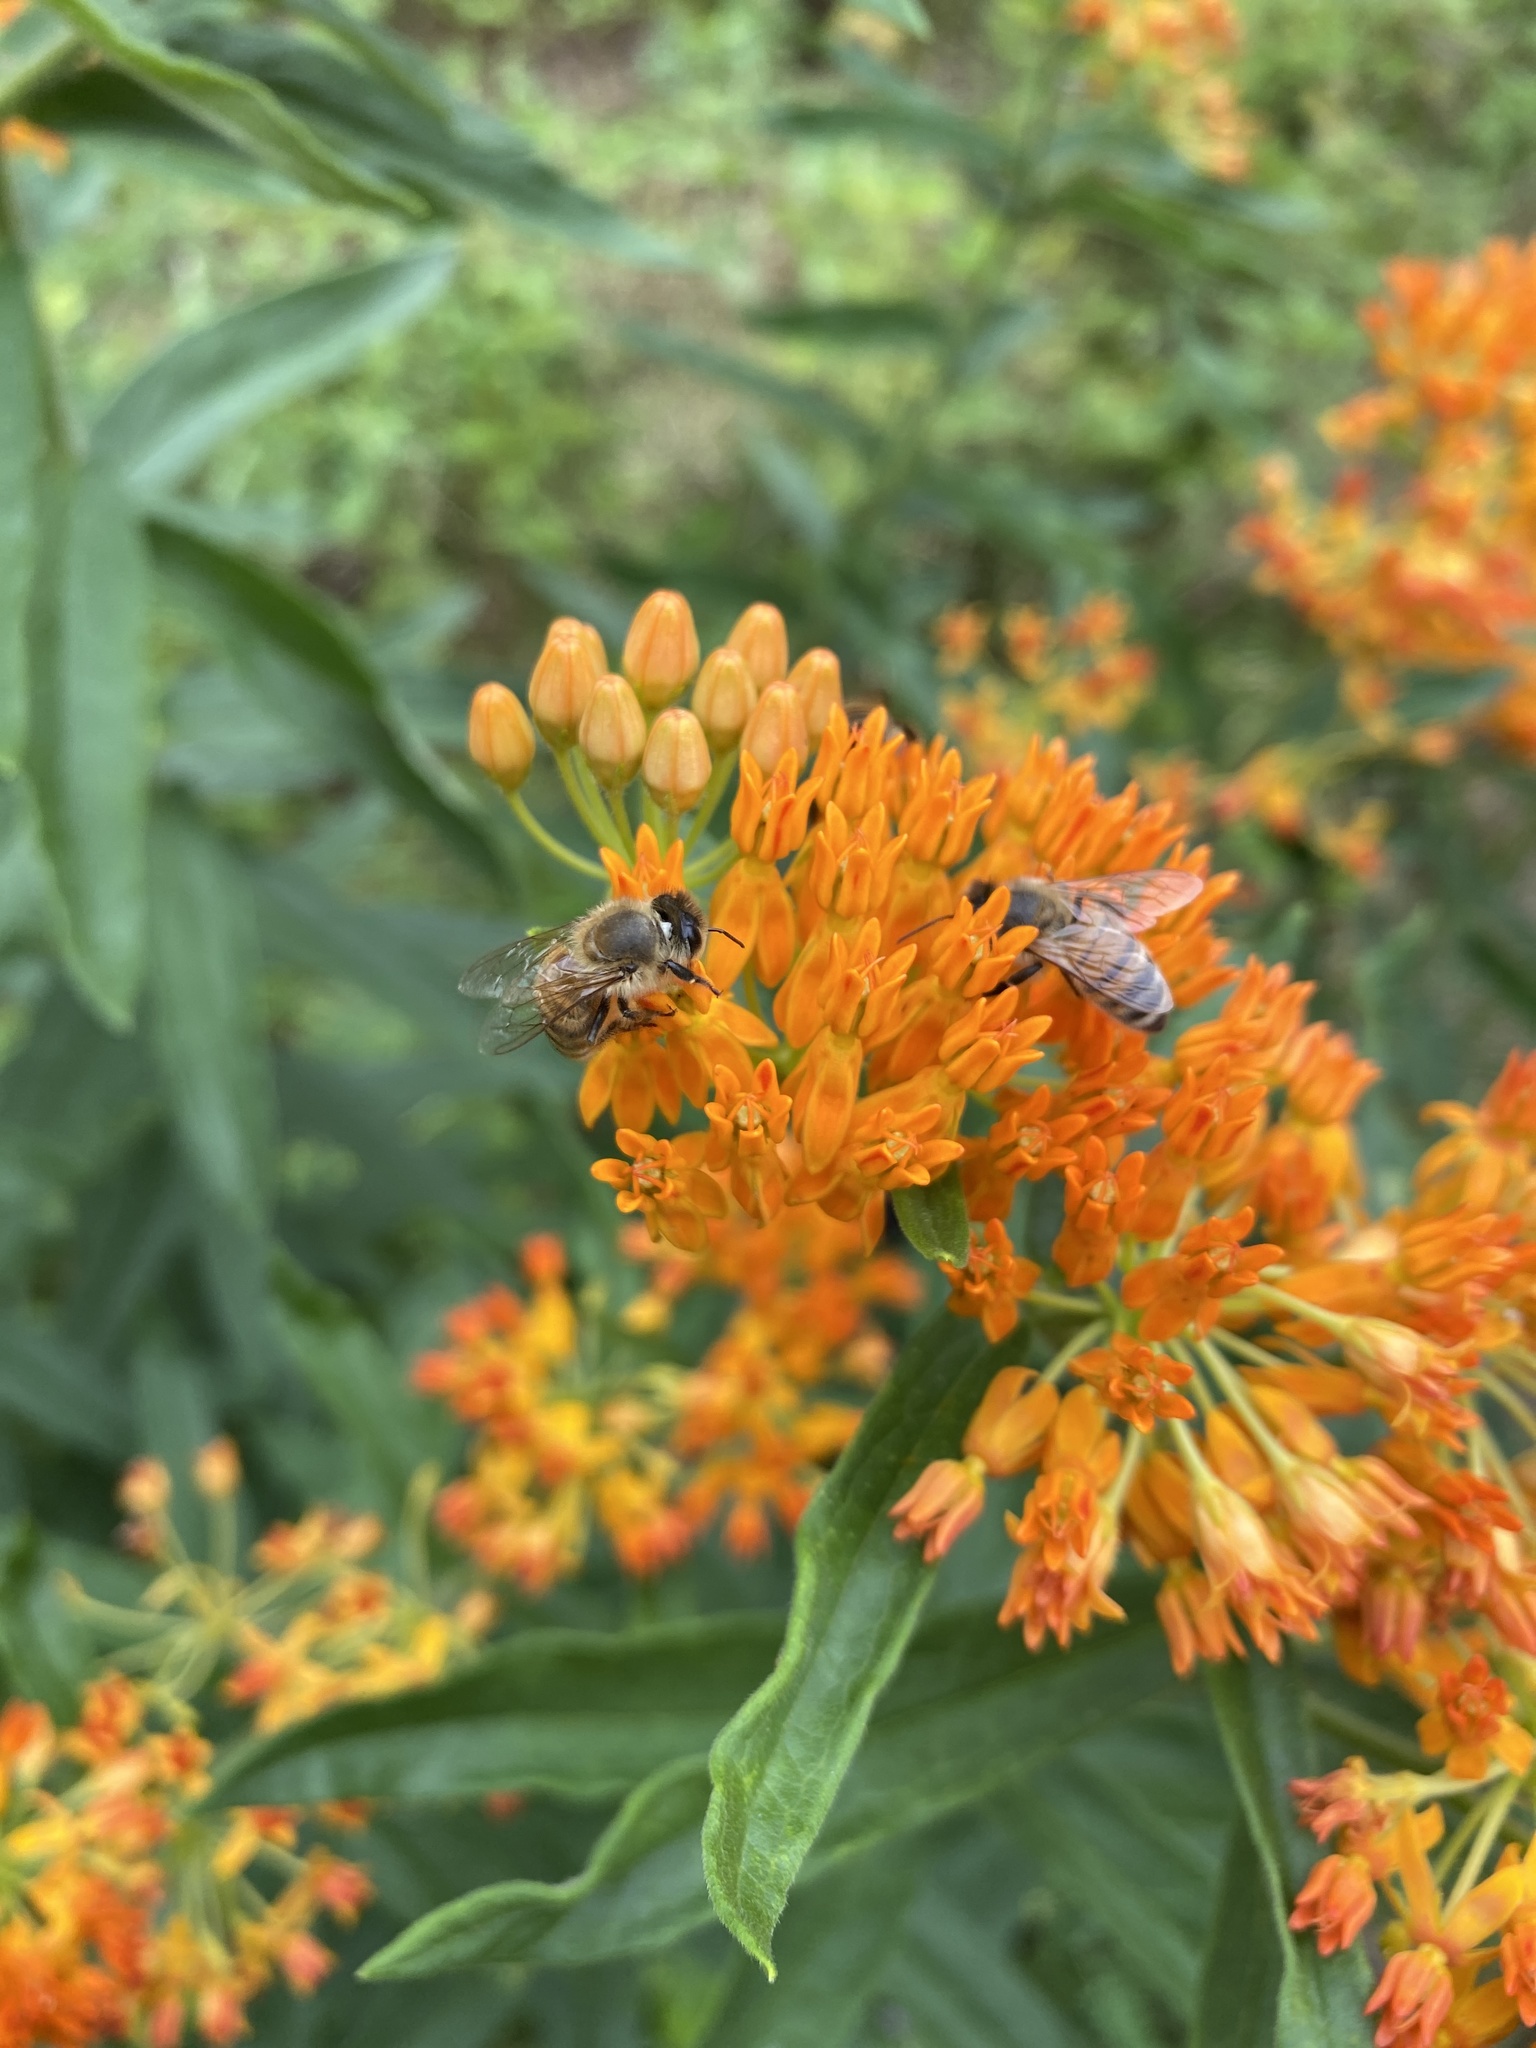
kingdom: Animalia
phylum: Arthropoda
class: Insecta
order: Hymenoptera
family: Apidae
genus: Apis
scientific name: Apis mellifera
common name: Honey bee
